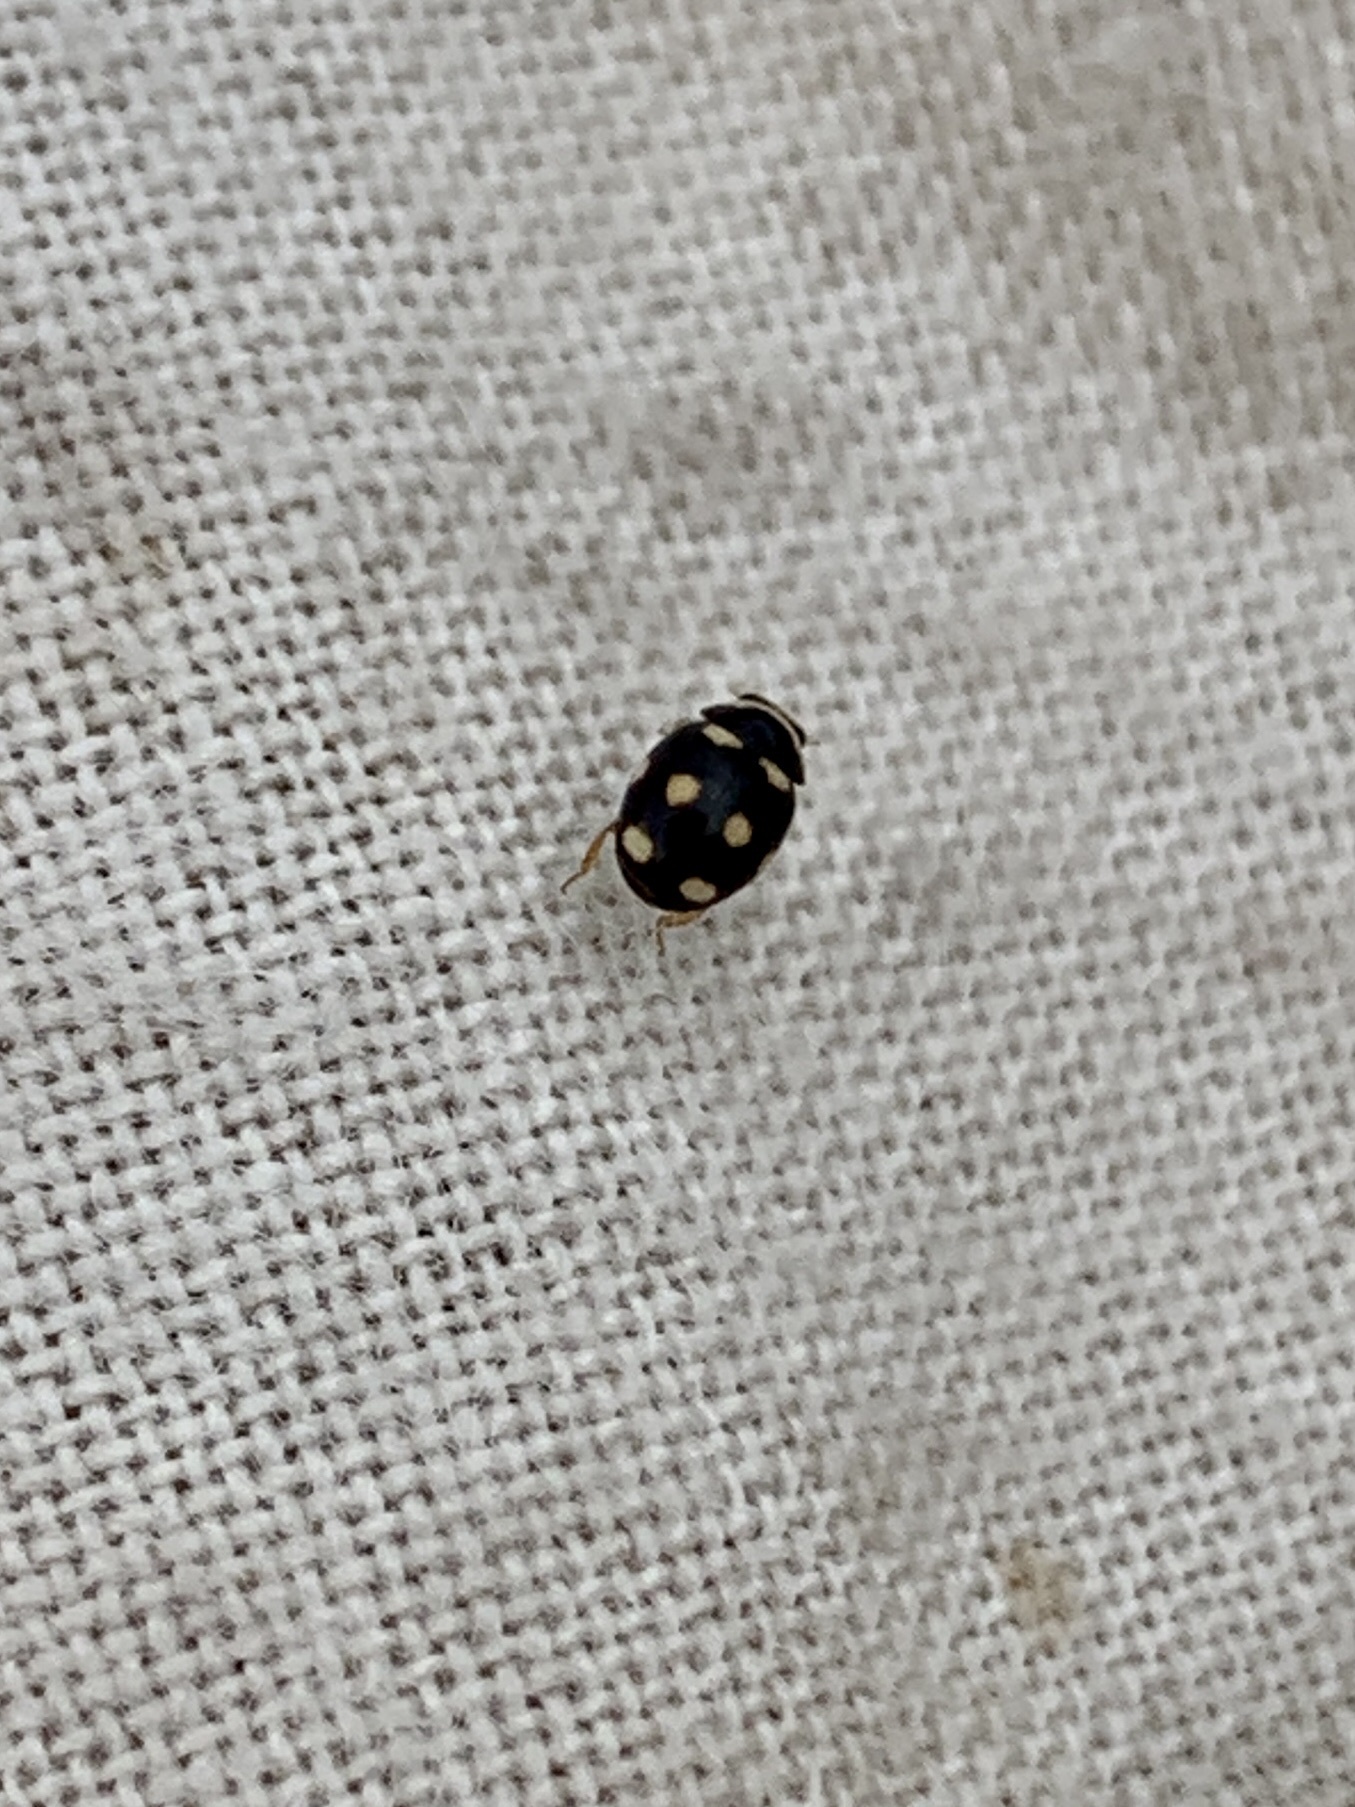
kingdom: Animalia
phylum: Arthropoda
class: Insecta
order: Coleoptera
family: Coccinellidae
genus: Brachiacantha
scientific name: Brachiacantha decempustulata
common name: Ten-spotted spurleg lady beetle
